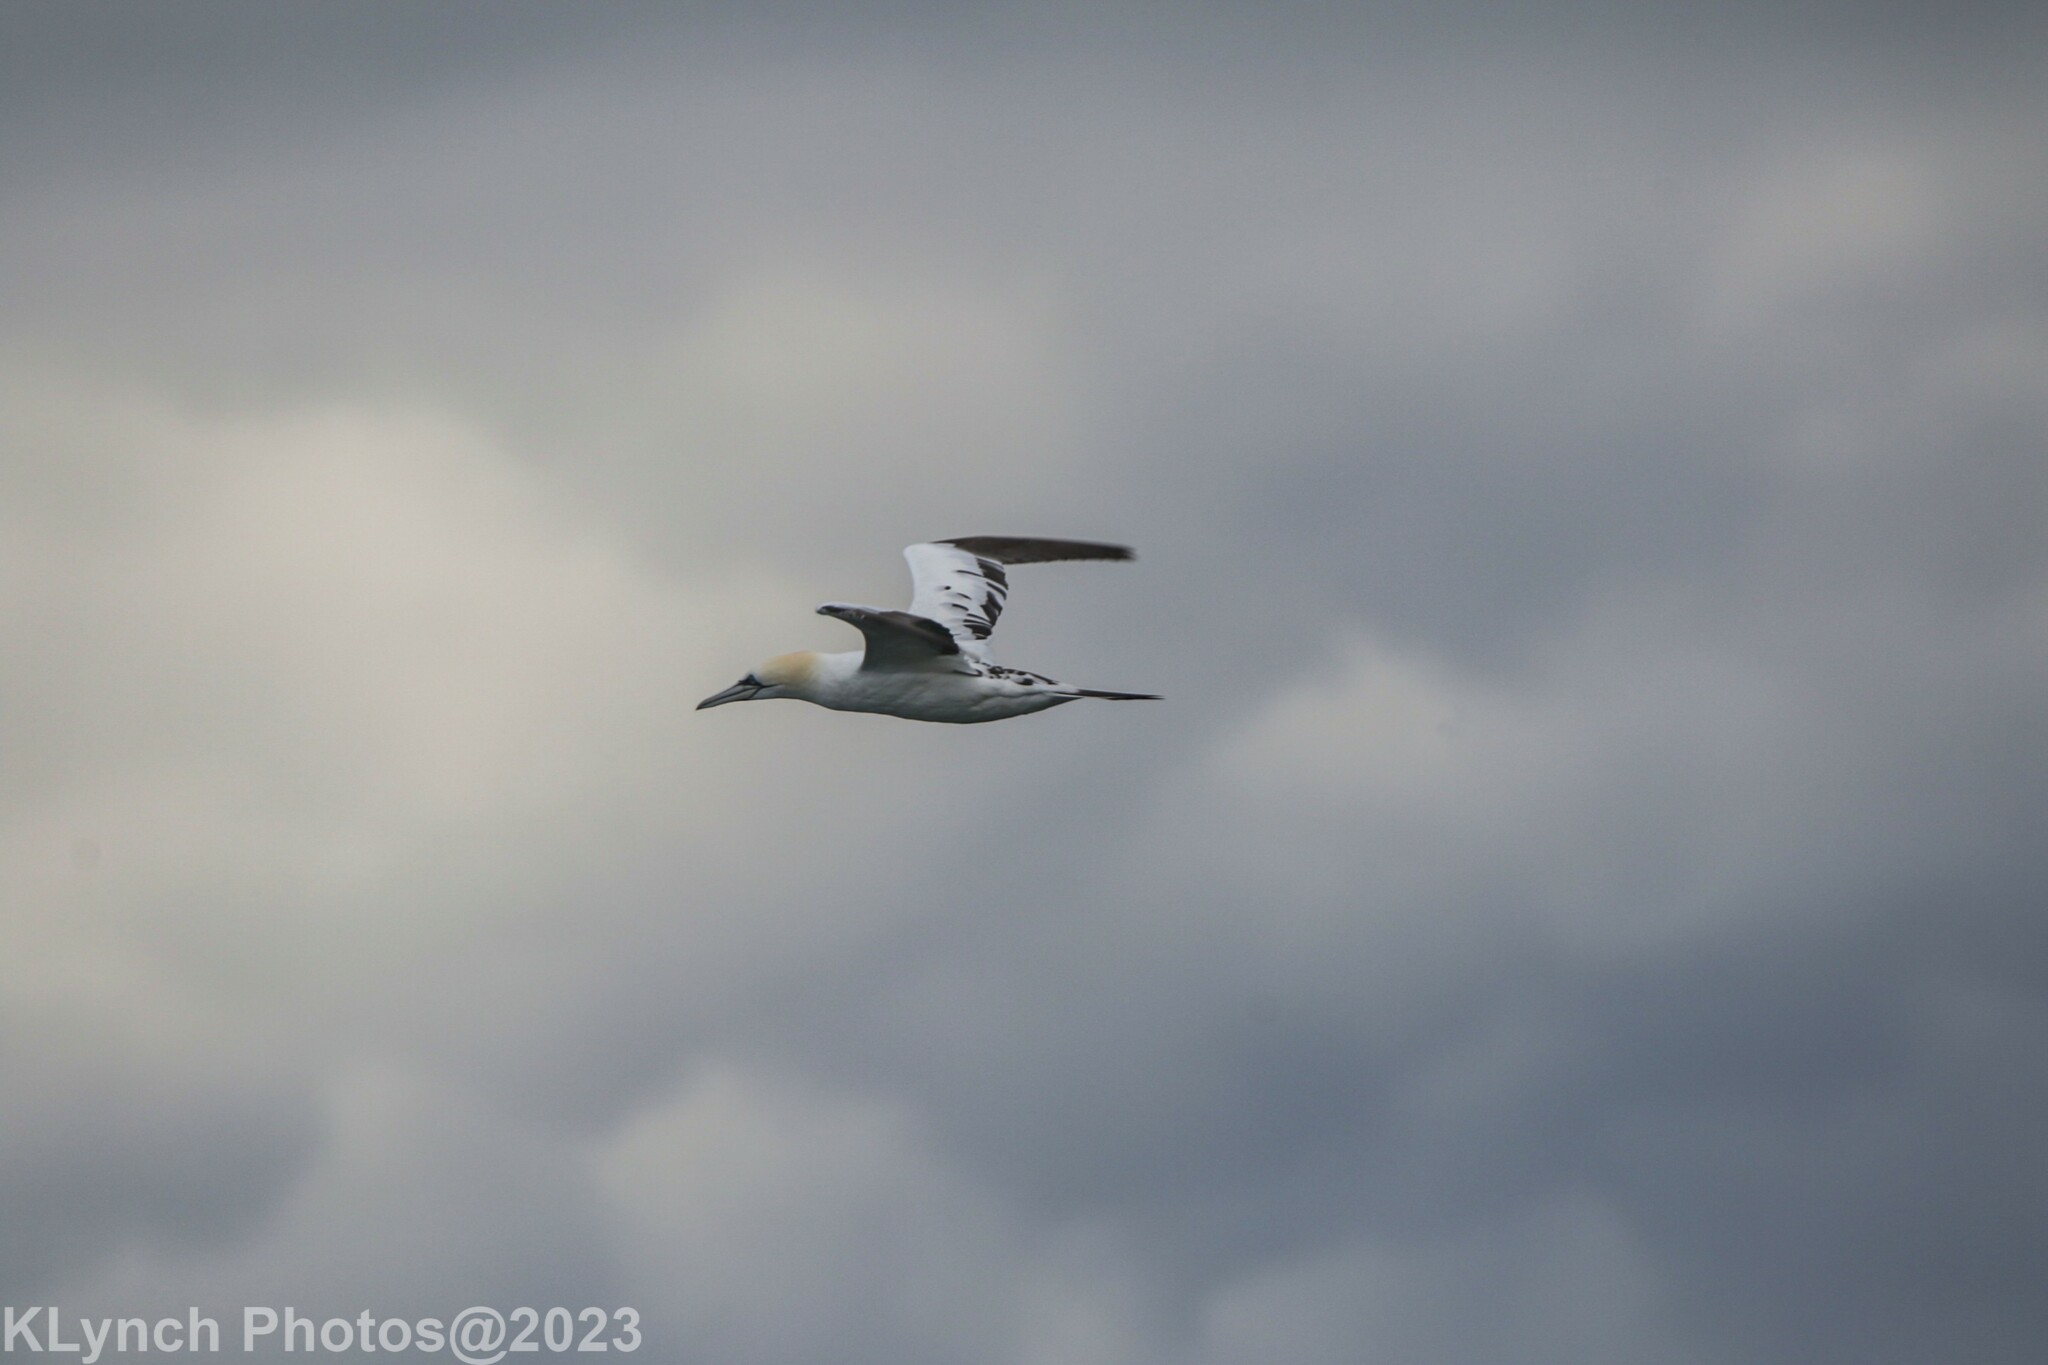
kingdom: Animalia
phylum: Chordata
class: Aves
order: Suliformes
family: Sulidae
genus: Morus
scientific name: Morus bassanus
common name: Northern gannet
